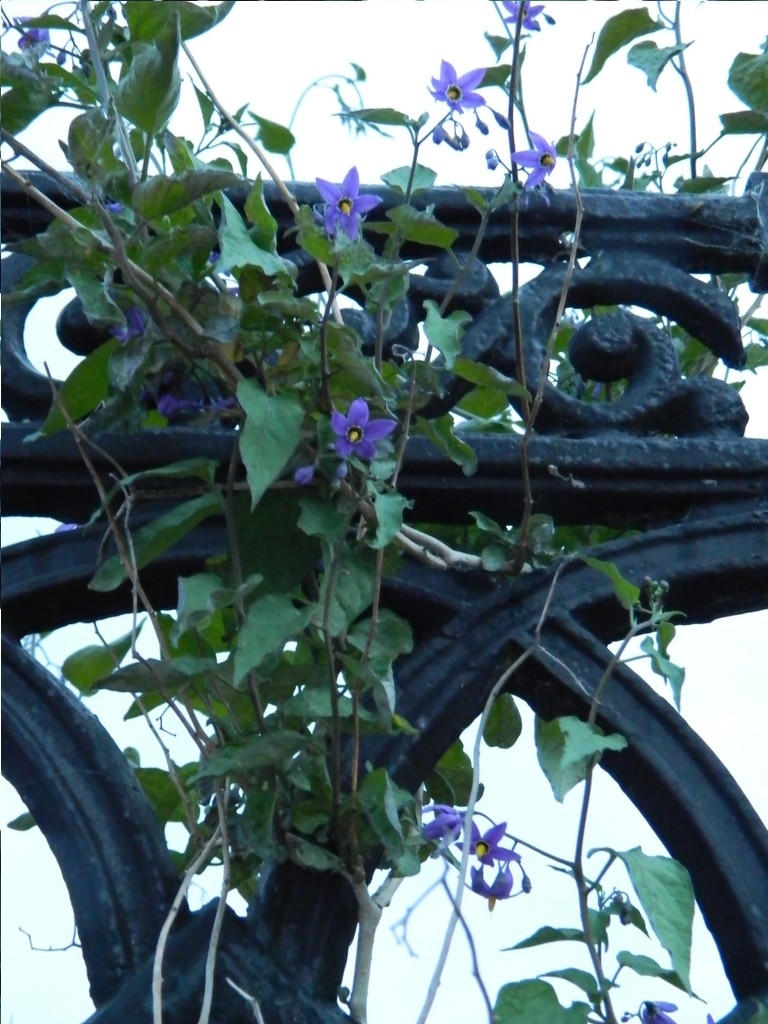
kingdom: Plantae
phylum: Tracheophyta
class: Magnoliopsida
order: Solanales
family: Solanaceae
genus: Solanum
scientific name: Solanum dulcamara
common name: Climbing nightshade
